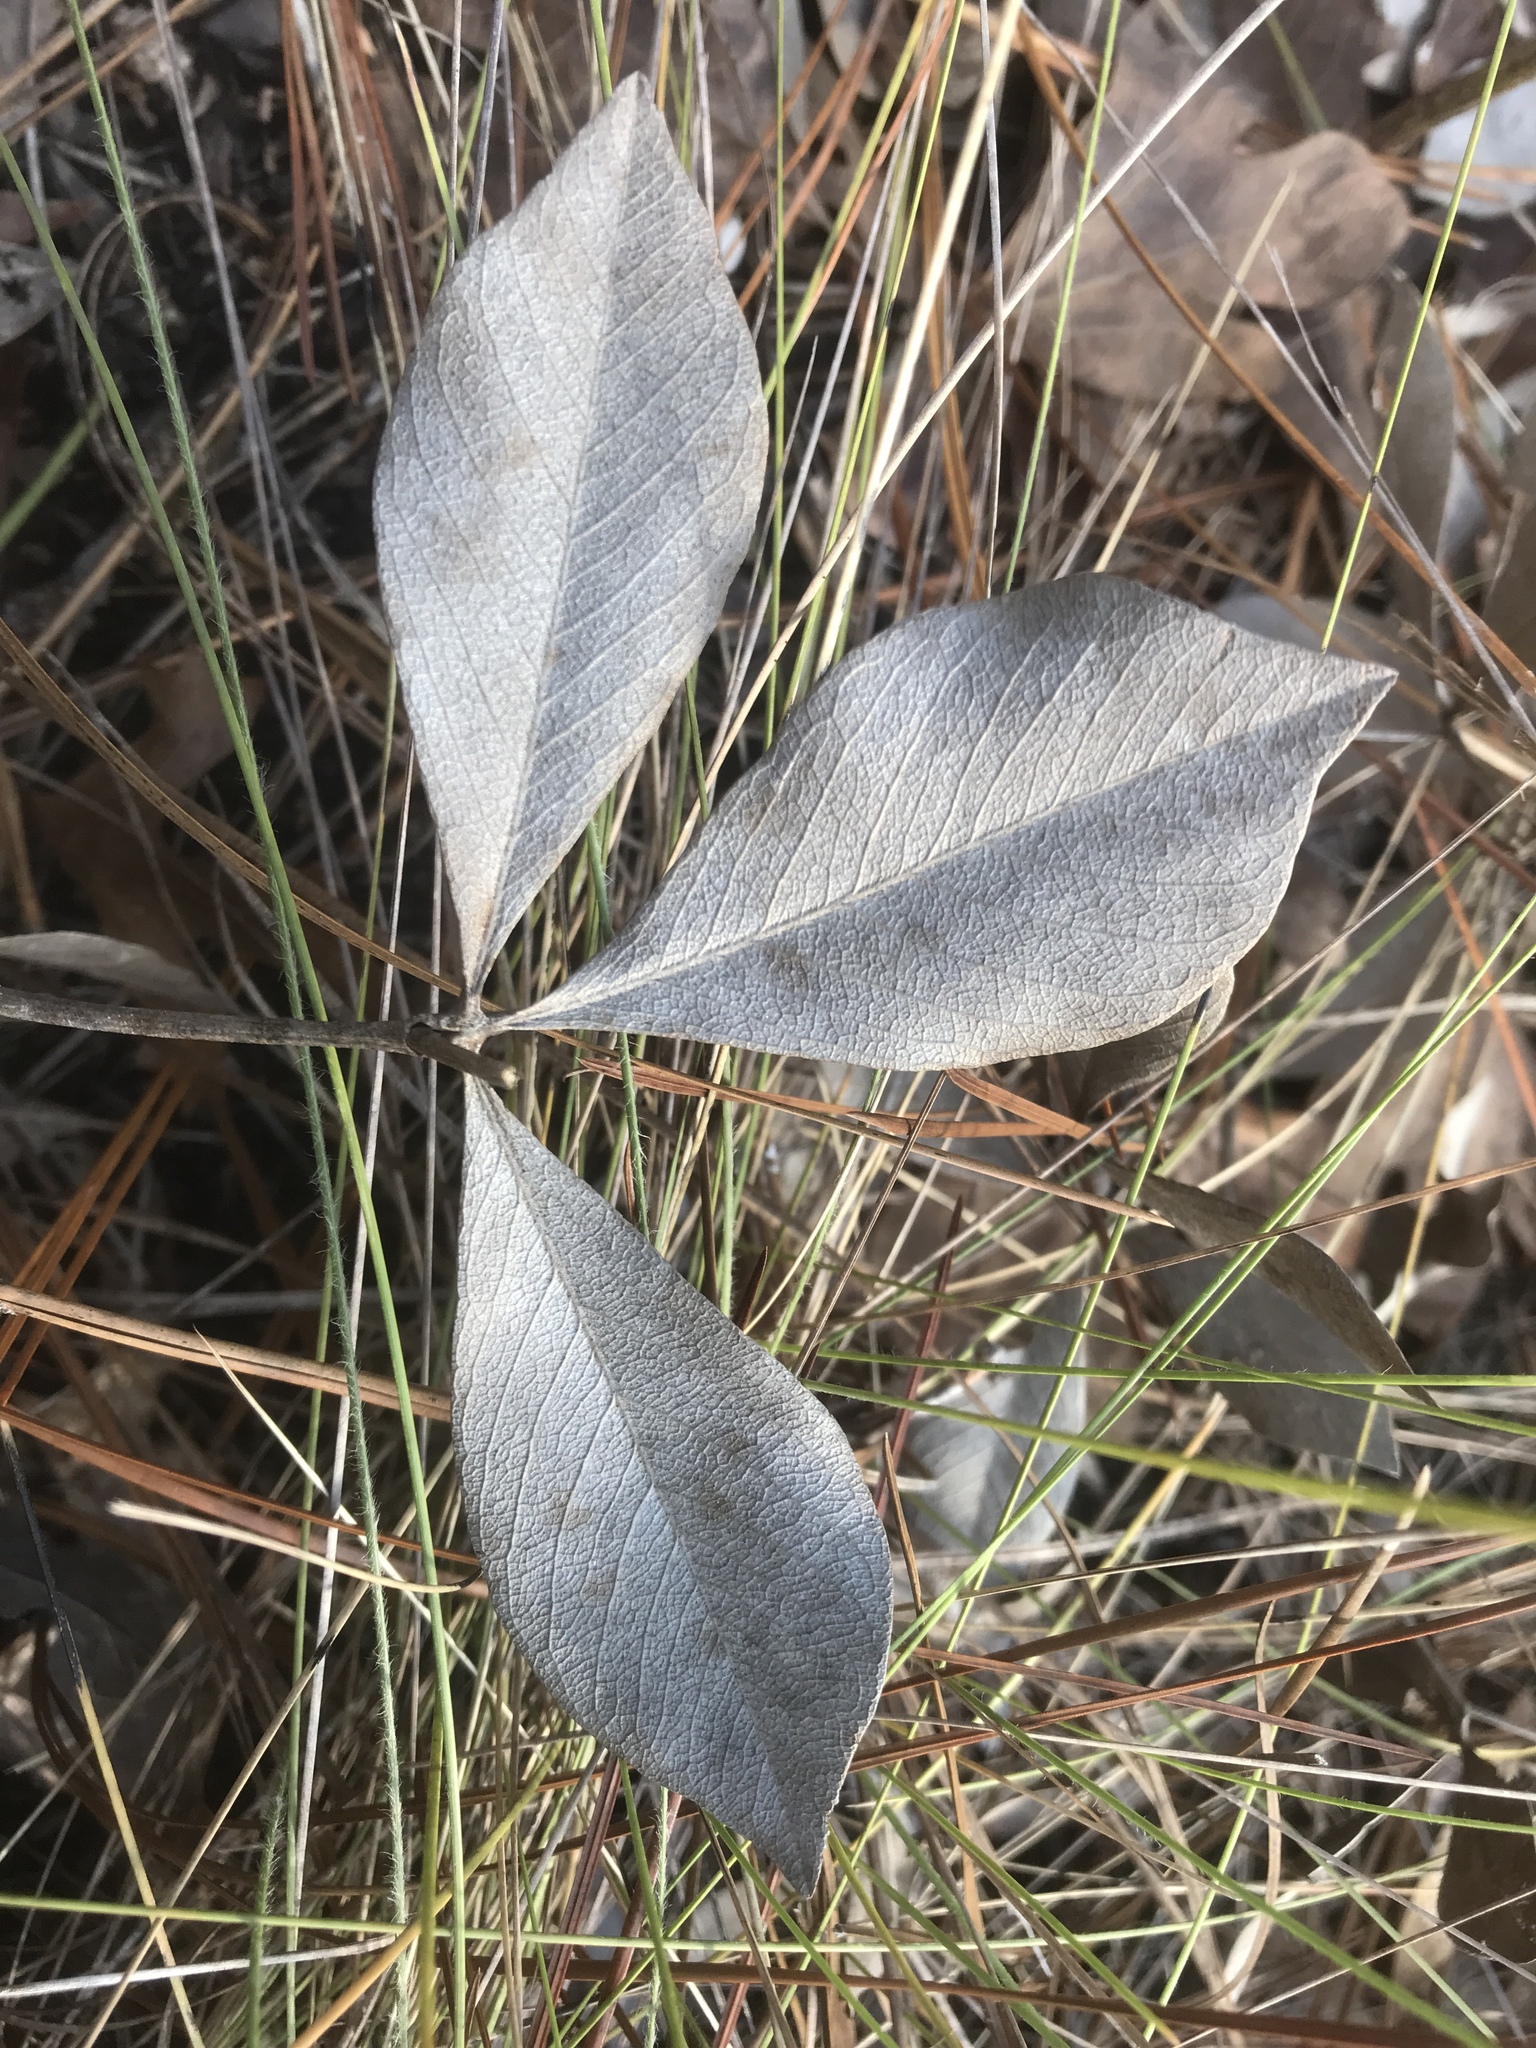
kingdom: Plantae
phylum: Tracheophyta
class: Magnoliopsida
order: Fabales
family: Fabaceae
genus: Baptisia
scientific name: Baptisia cinerea
